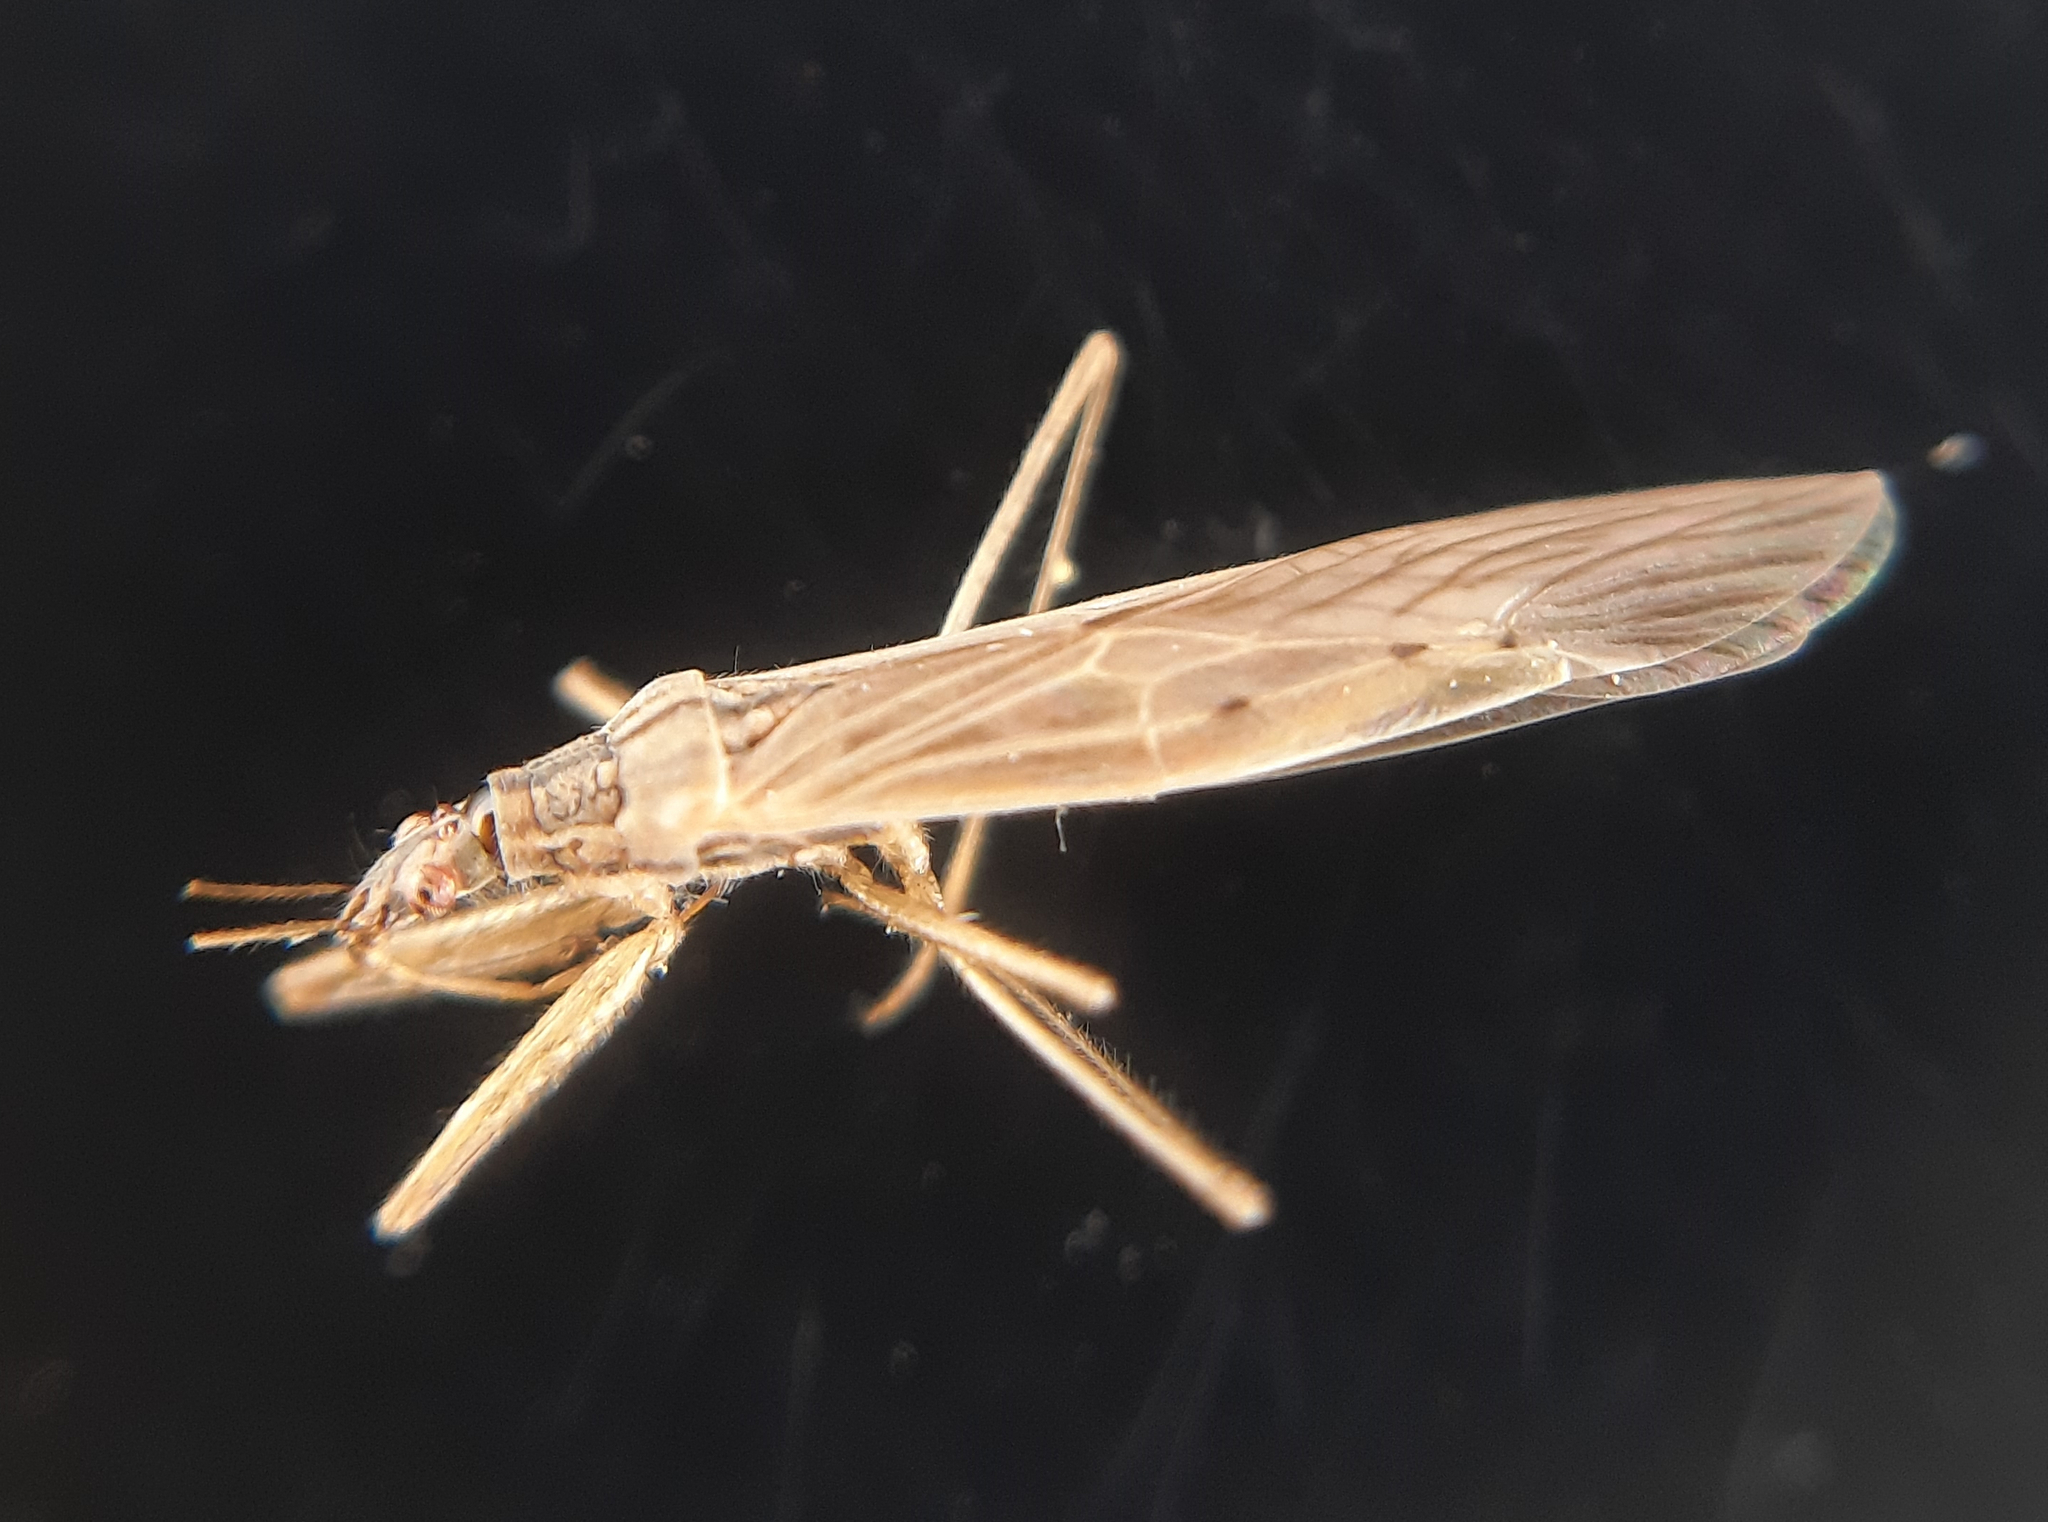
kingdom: Animalia
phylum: Arthropoda
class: Insecta
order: Hemiptera
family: Nabidae
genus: Nabis
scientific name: Nabis capsiformis
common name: Pale damsel bug
